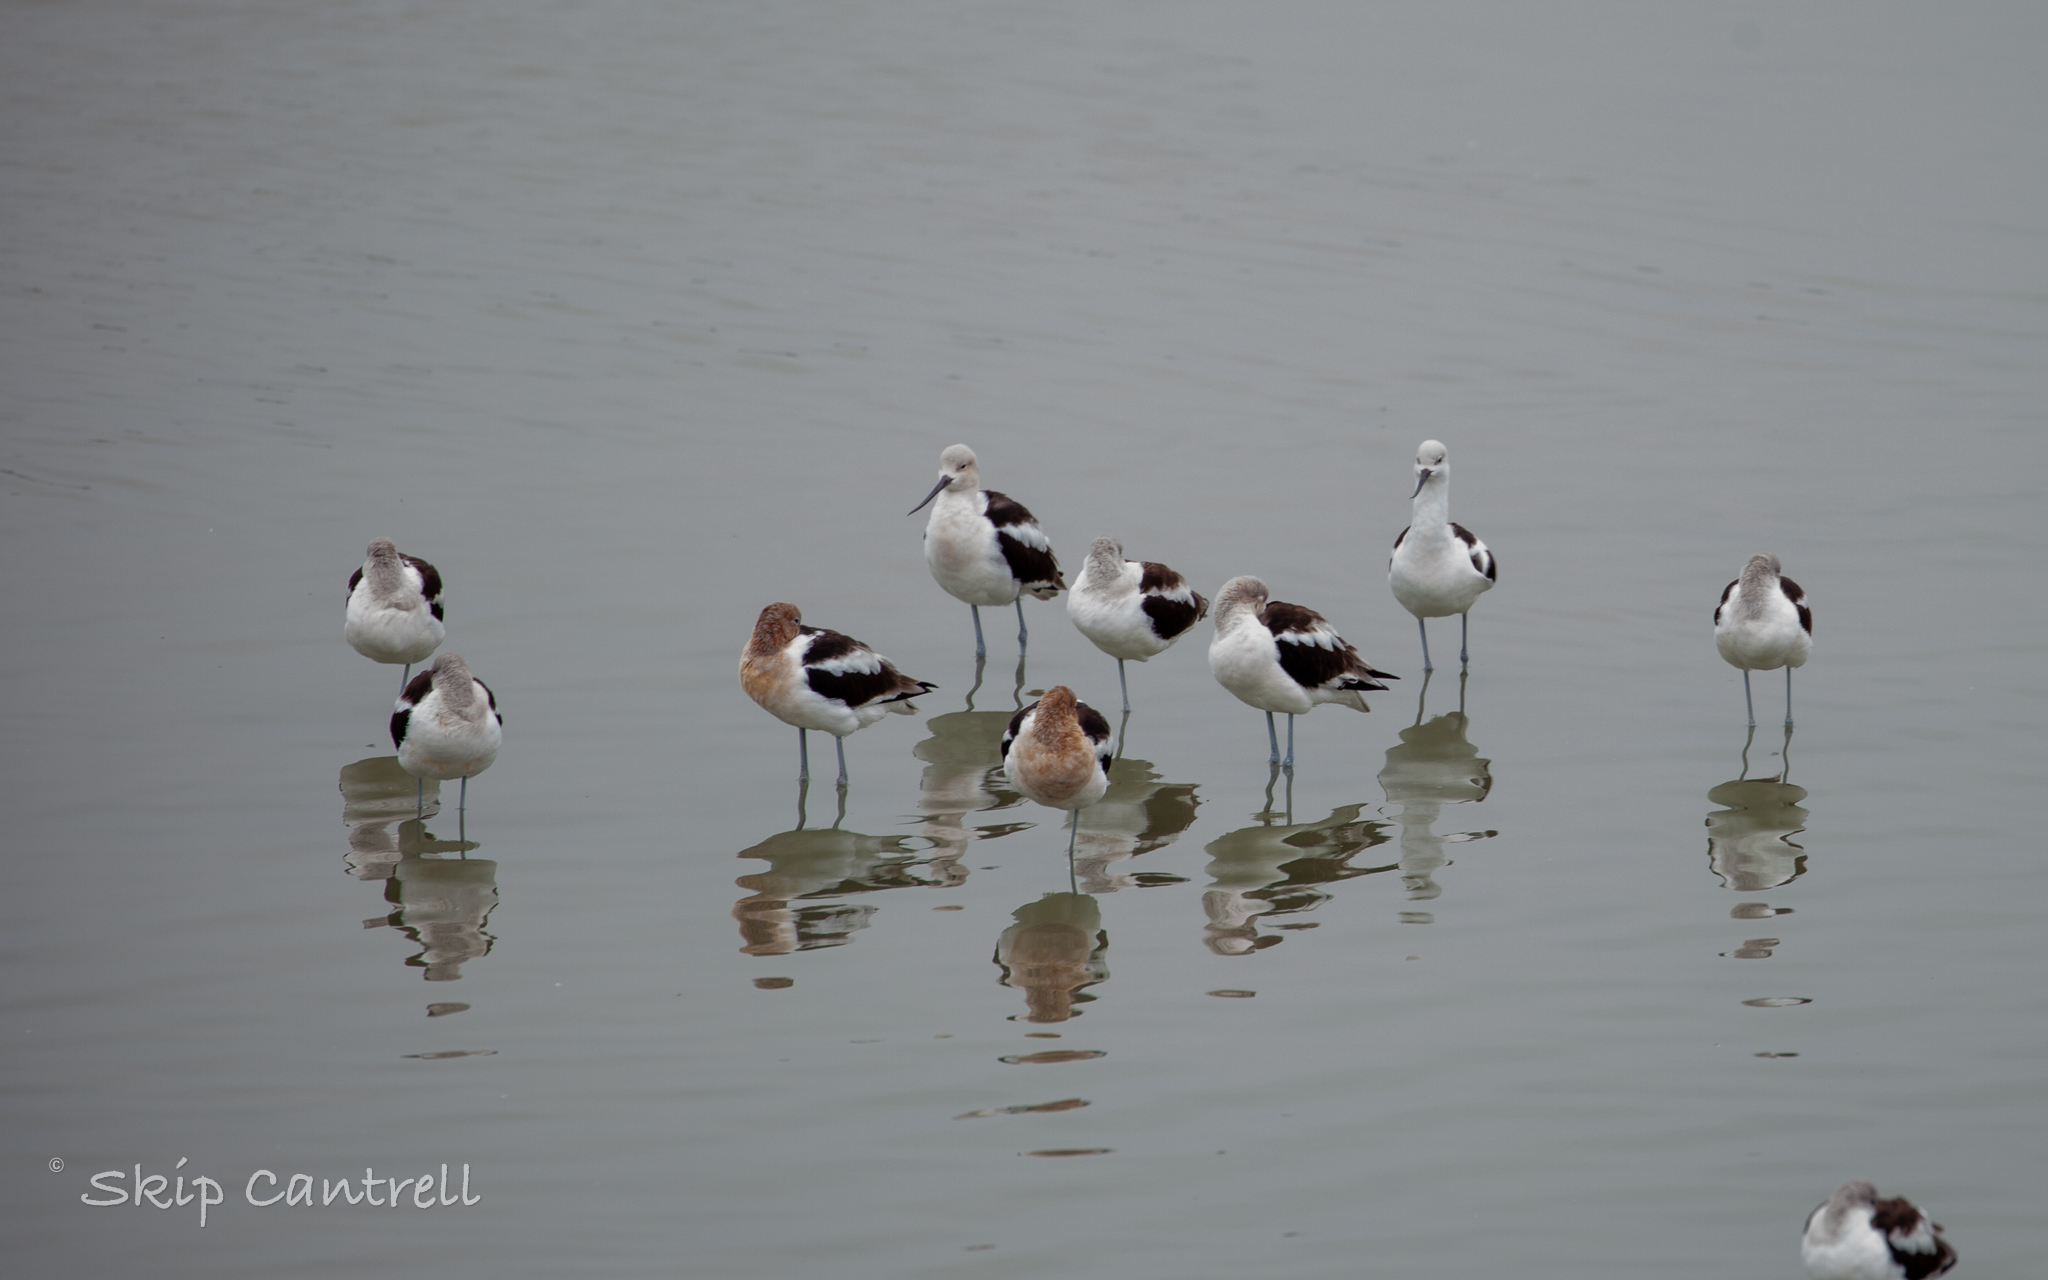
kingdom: Animalia
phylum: Chordata
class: Aves
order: Charadriiformes
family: Recurvirostridae
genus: Recurvirostra
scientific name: Recurvirostra americana
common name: American avocet
